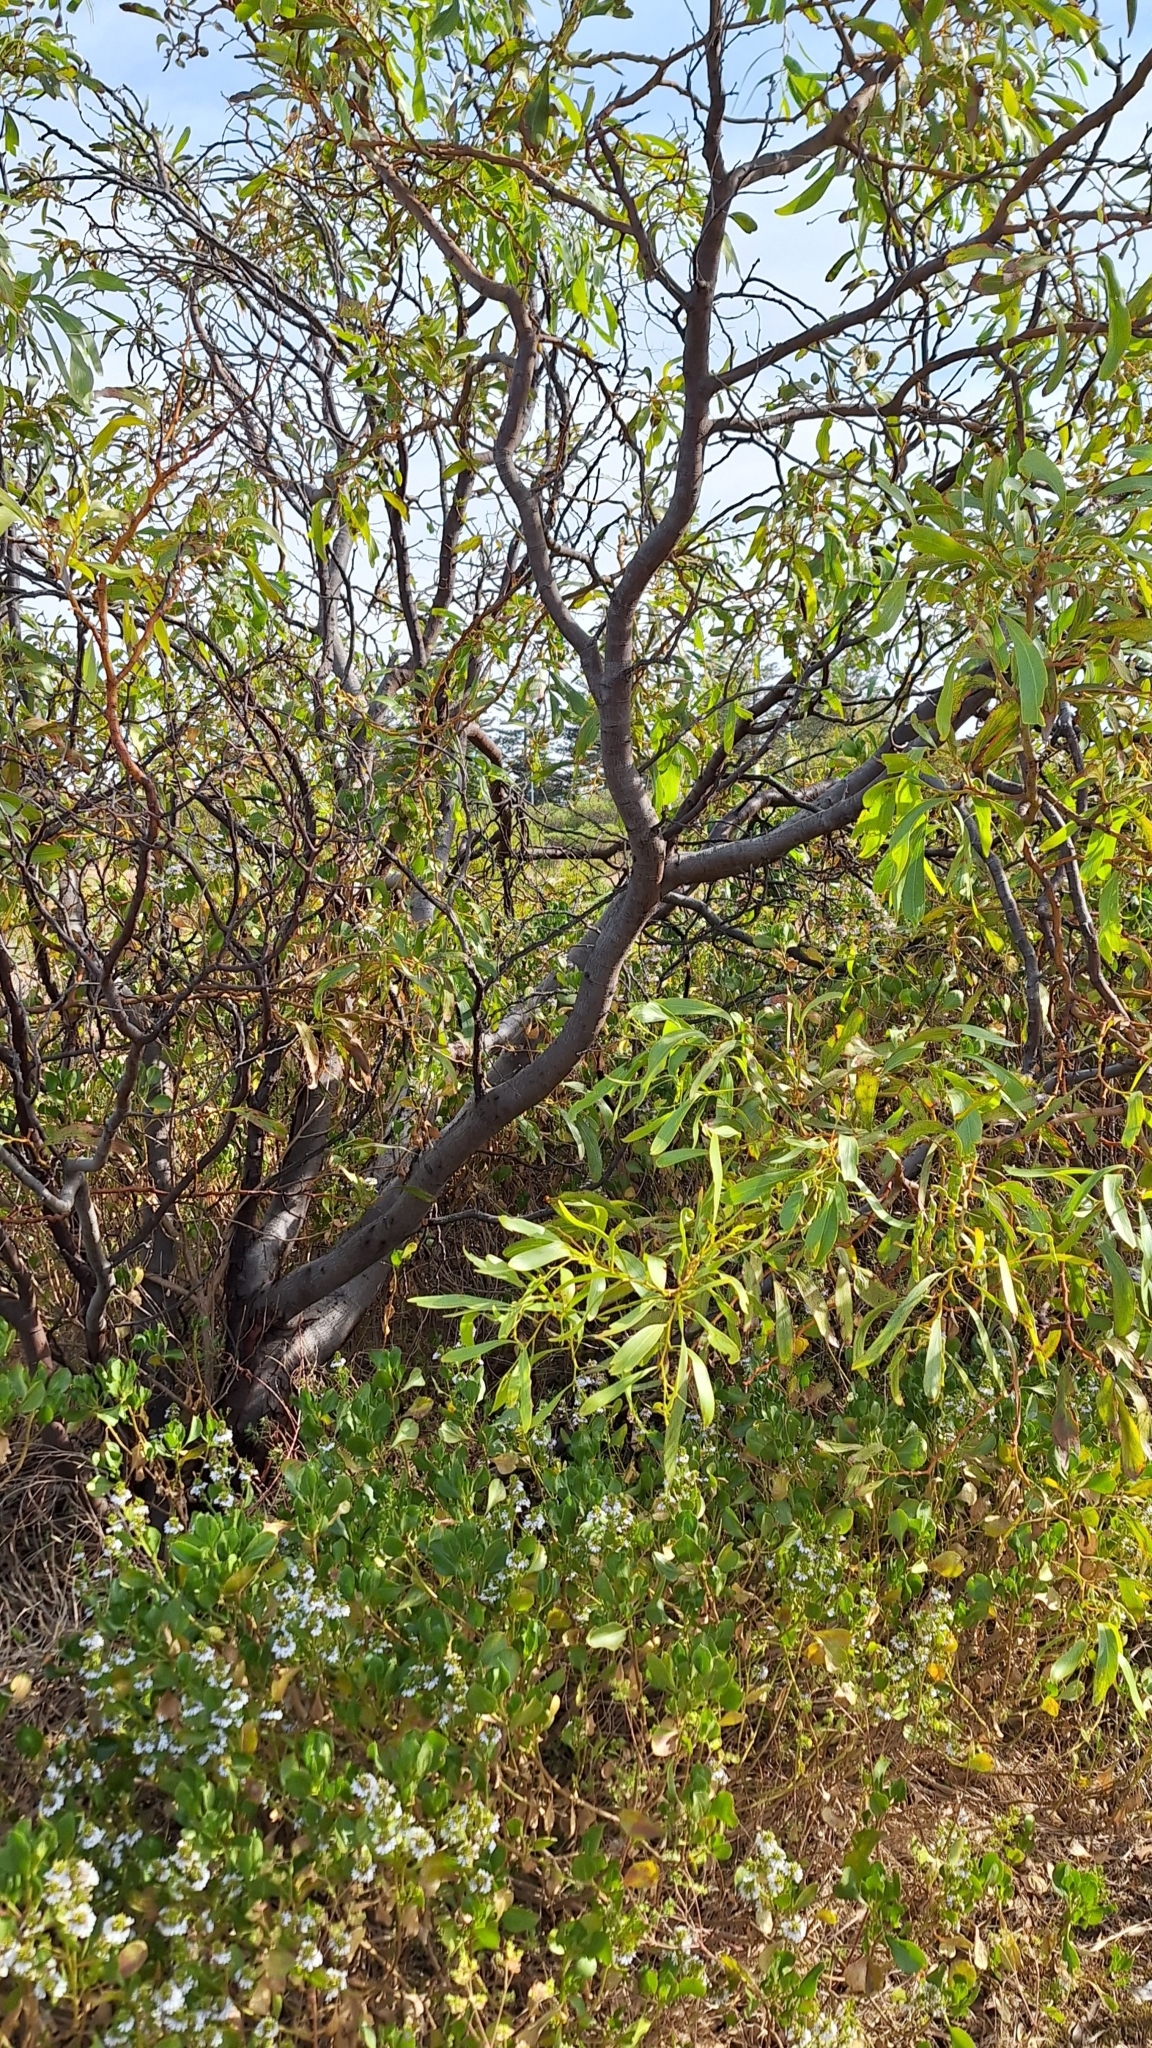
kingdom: Plantae
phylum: Tracheophyta
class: Magnoliopsida
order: Fabales
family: Fabaceae
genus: Acacia
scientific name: Acacia pycnantha
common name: Golden wattle
